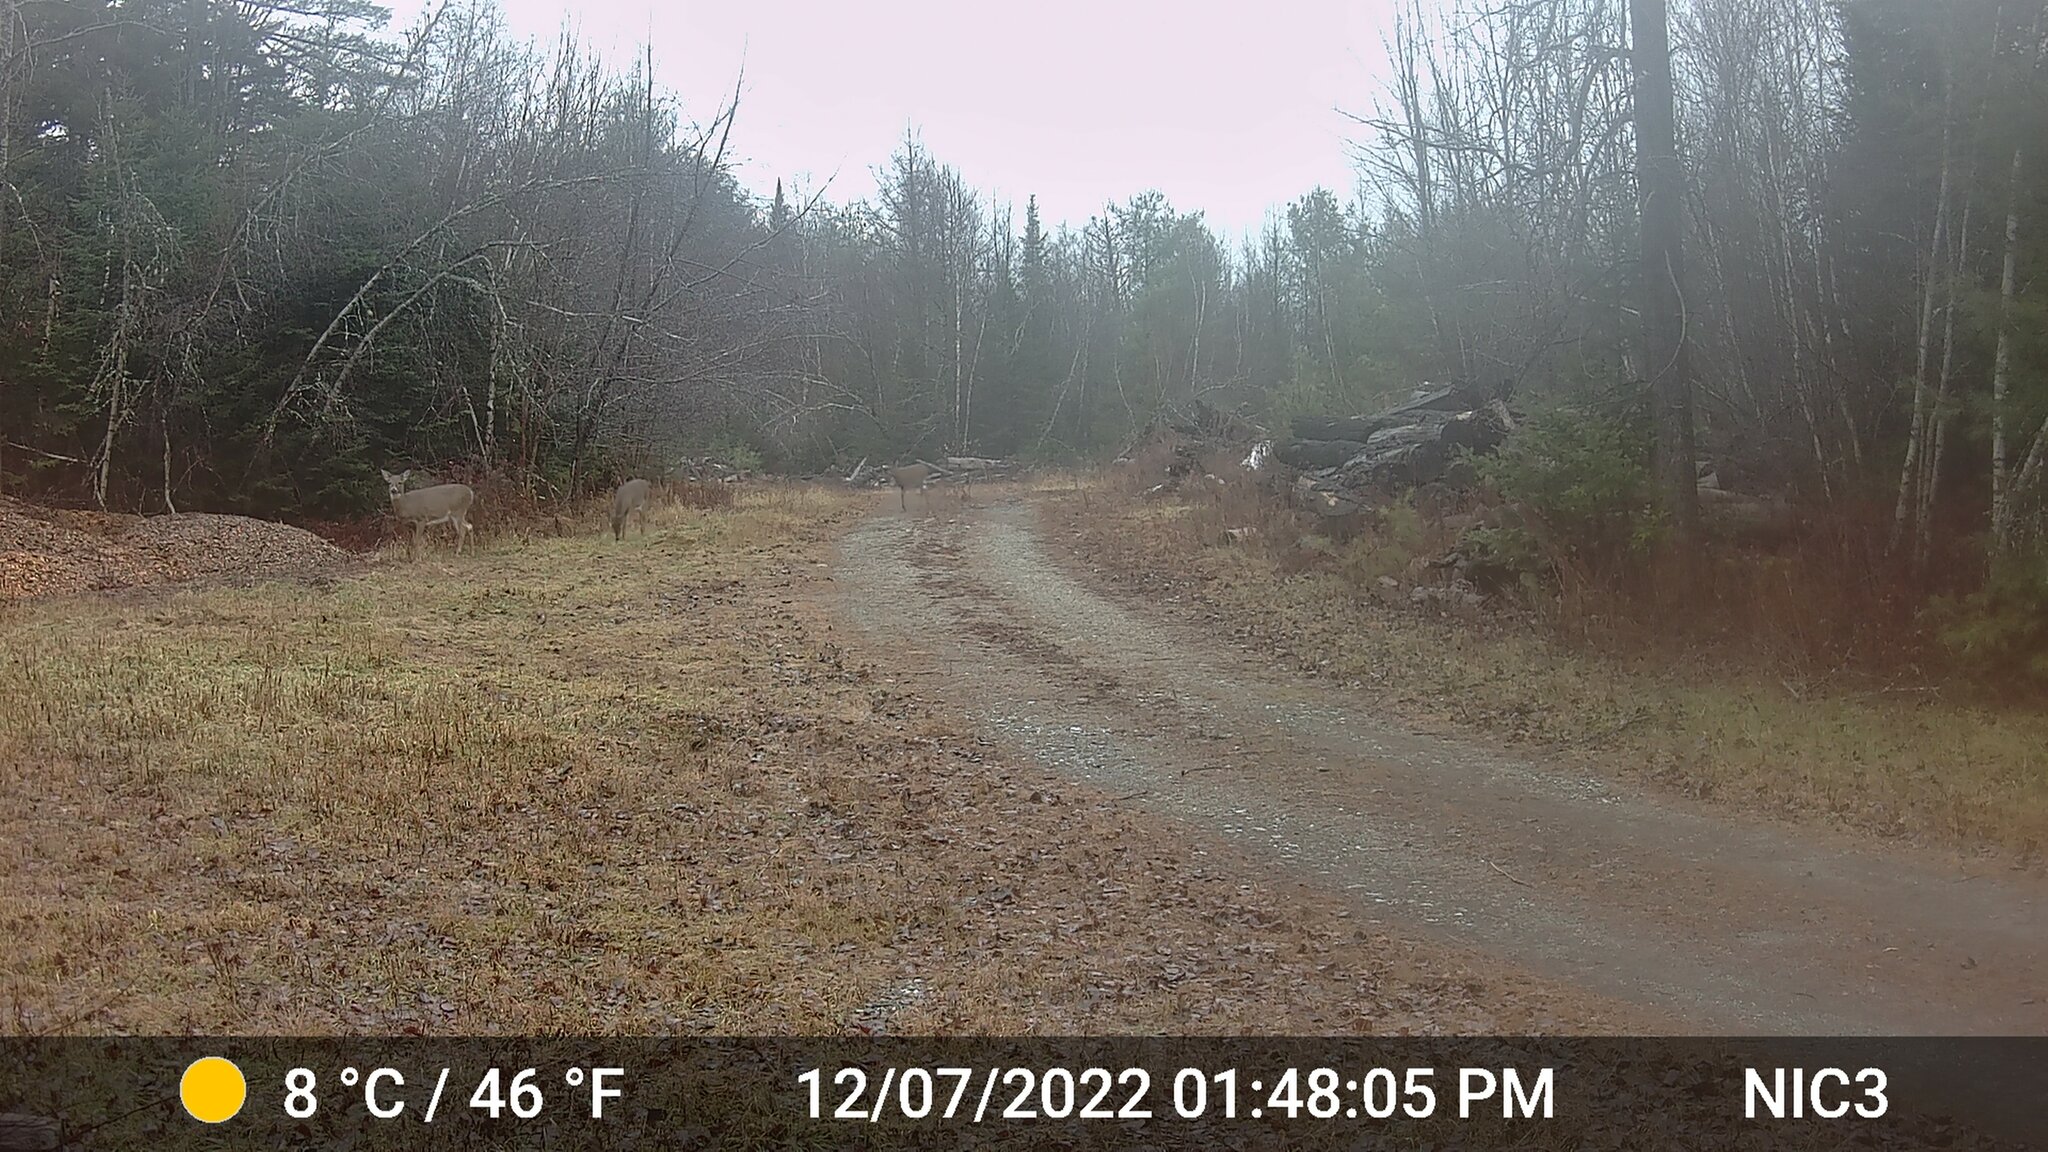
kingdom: Animalia
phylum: Chordata
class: Mammalia
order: Artiodactyla
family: Cervidae
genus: Odocoileus
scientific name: Odocoileus virginianus
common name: White-tailed deer
